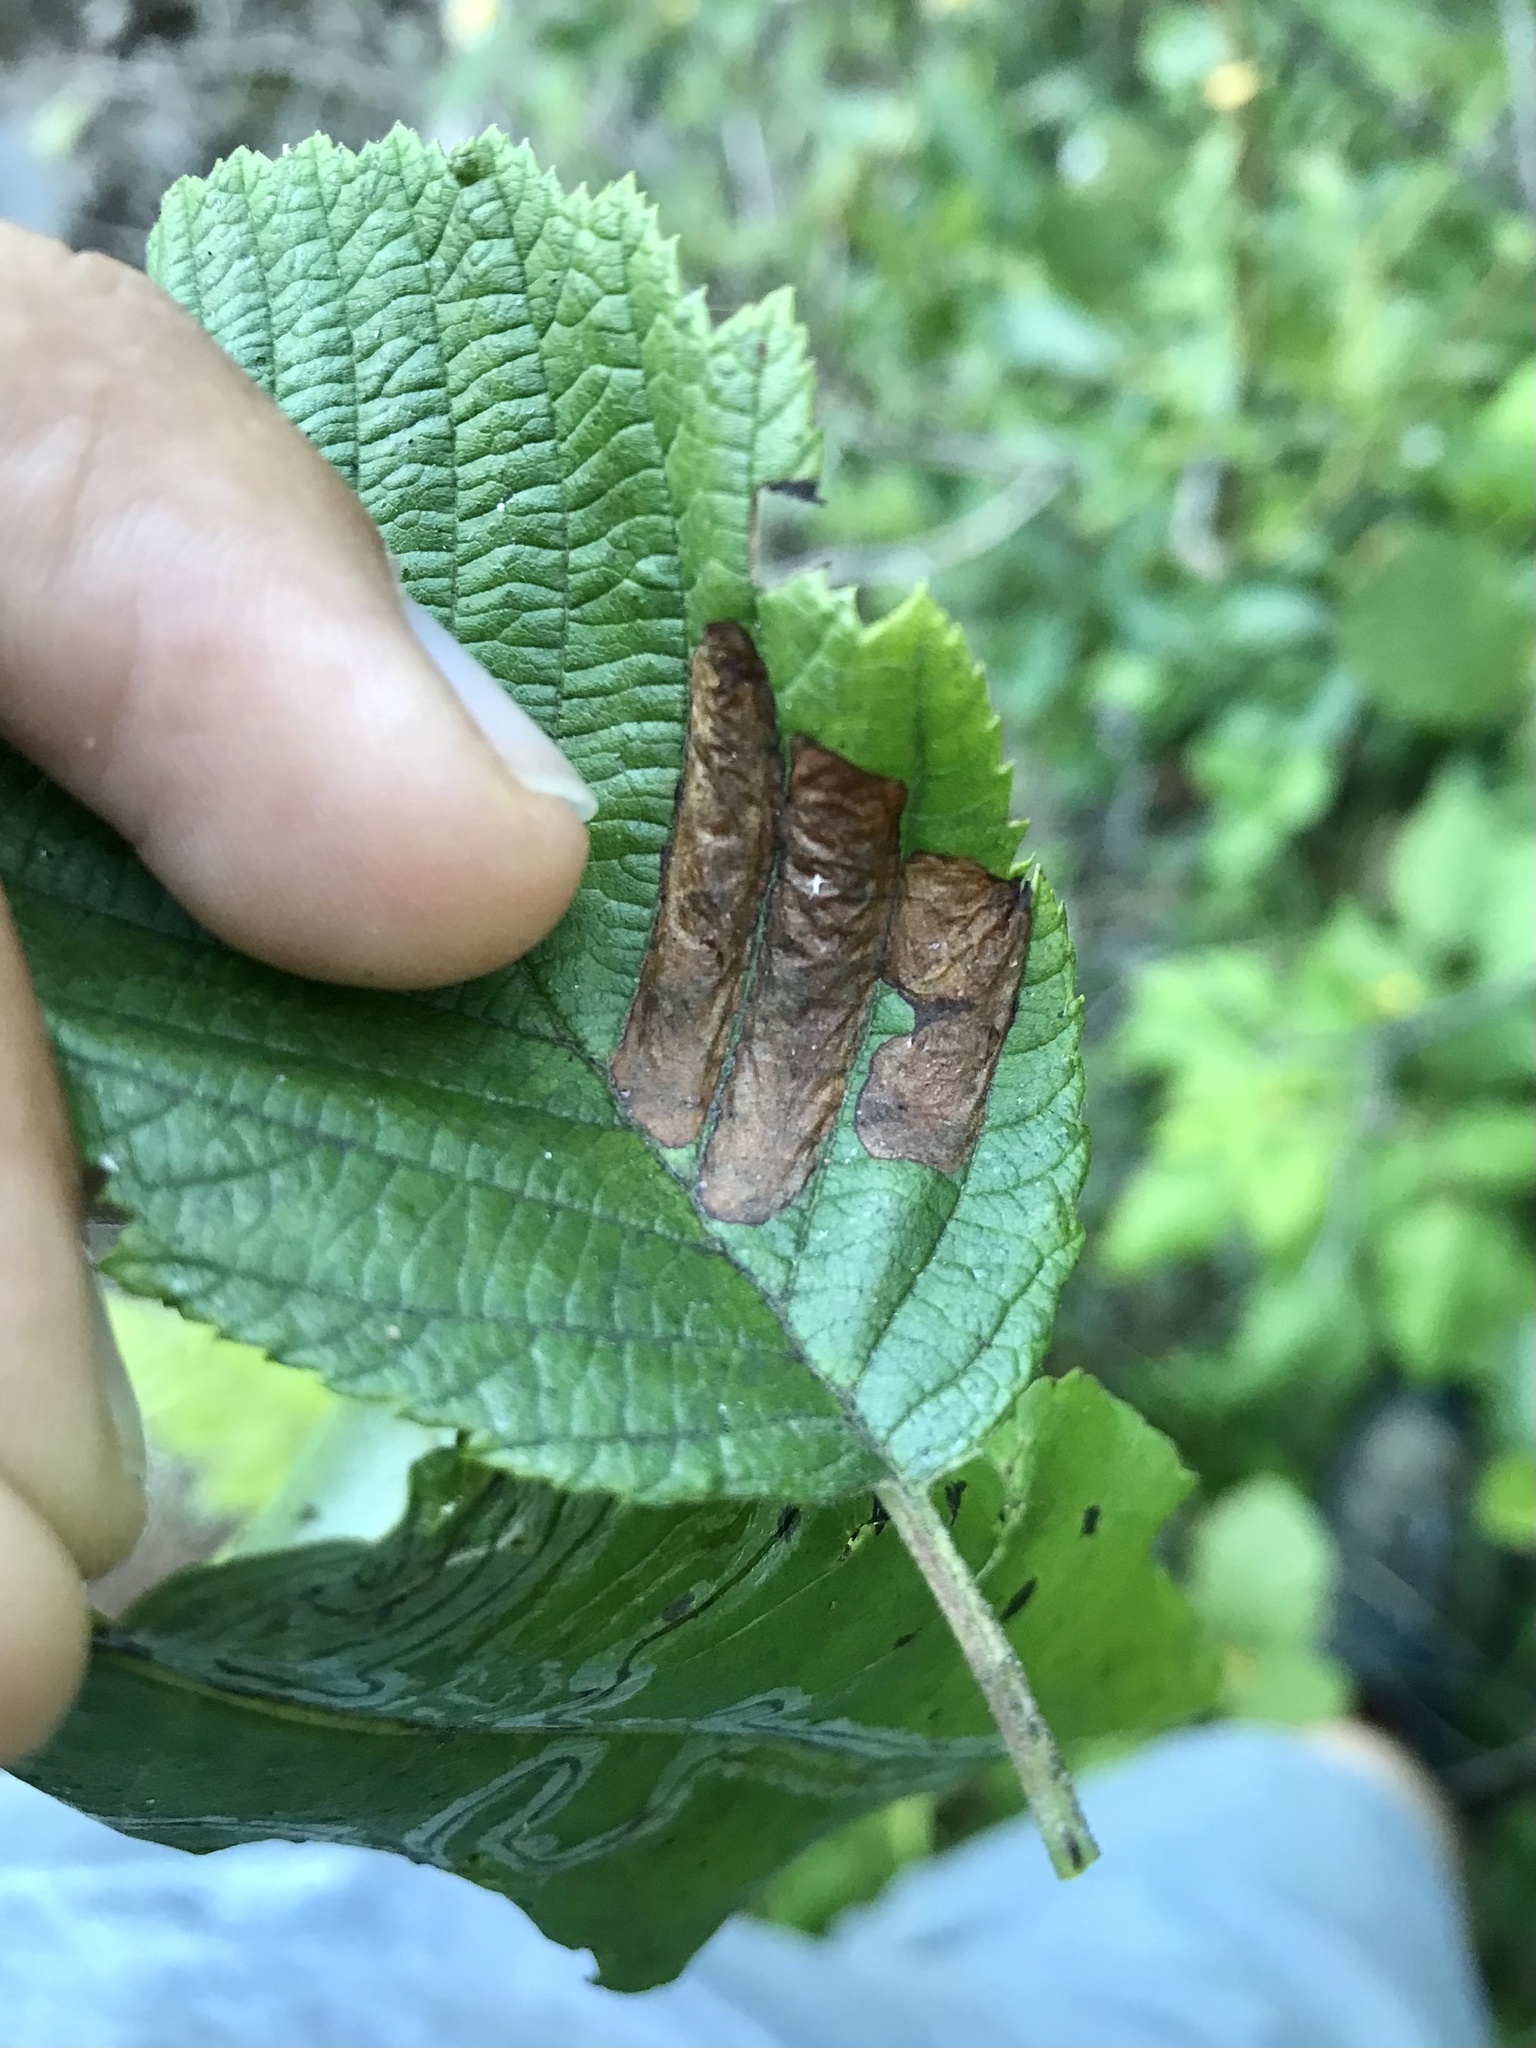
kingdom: Animalia
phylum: Arthropoda
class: Insecta
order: Hymenoptera
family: Tenthredinidae
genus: Fenusa
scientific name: Fenusa dohrnii
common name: European alder leafminer
